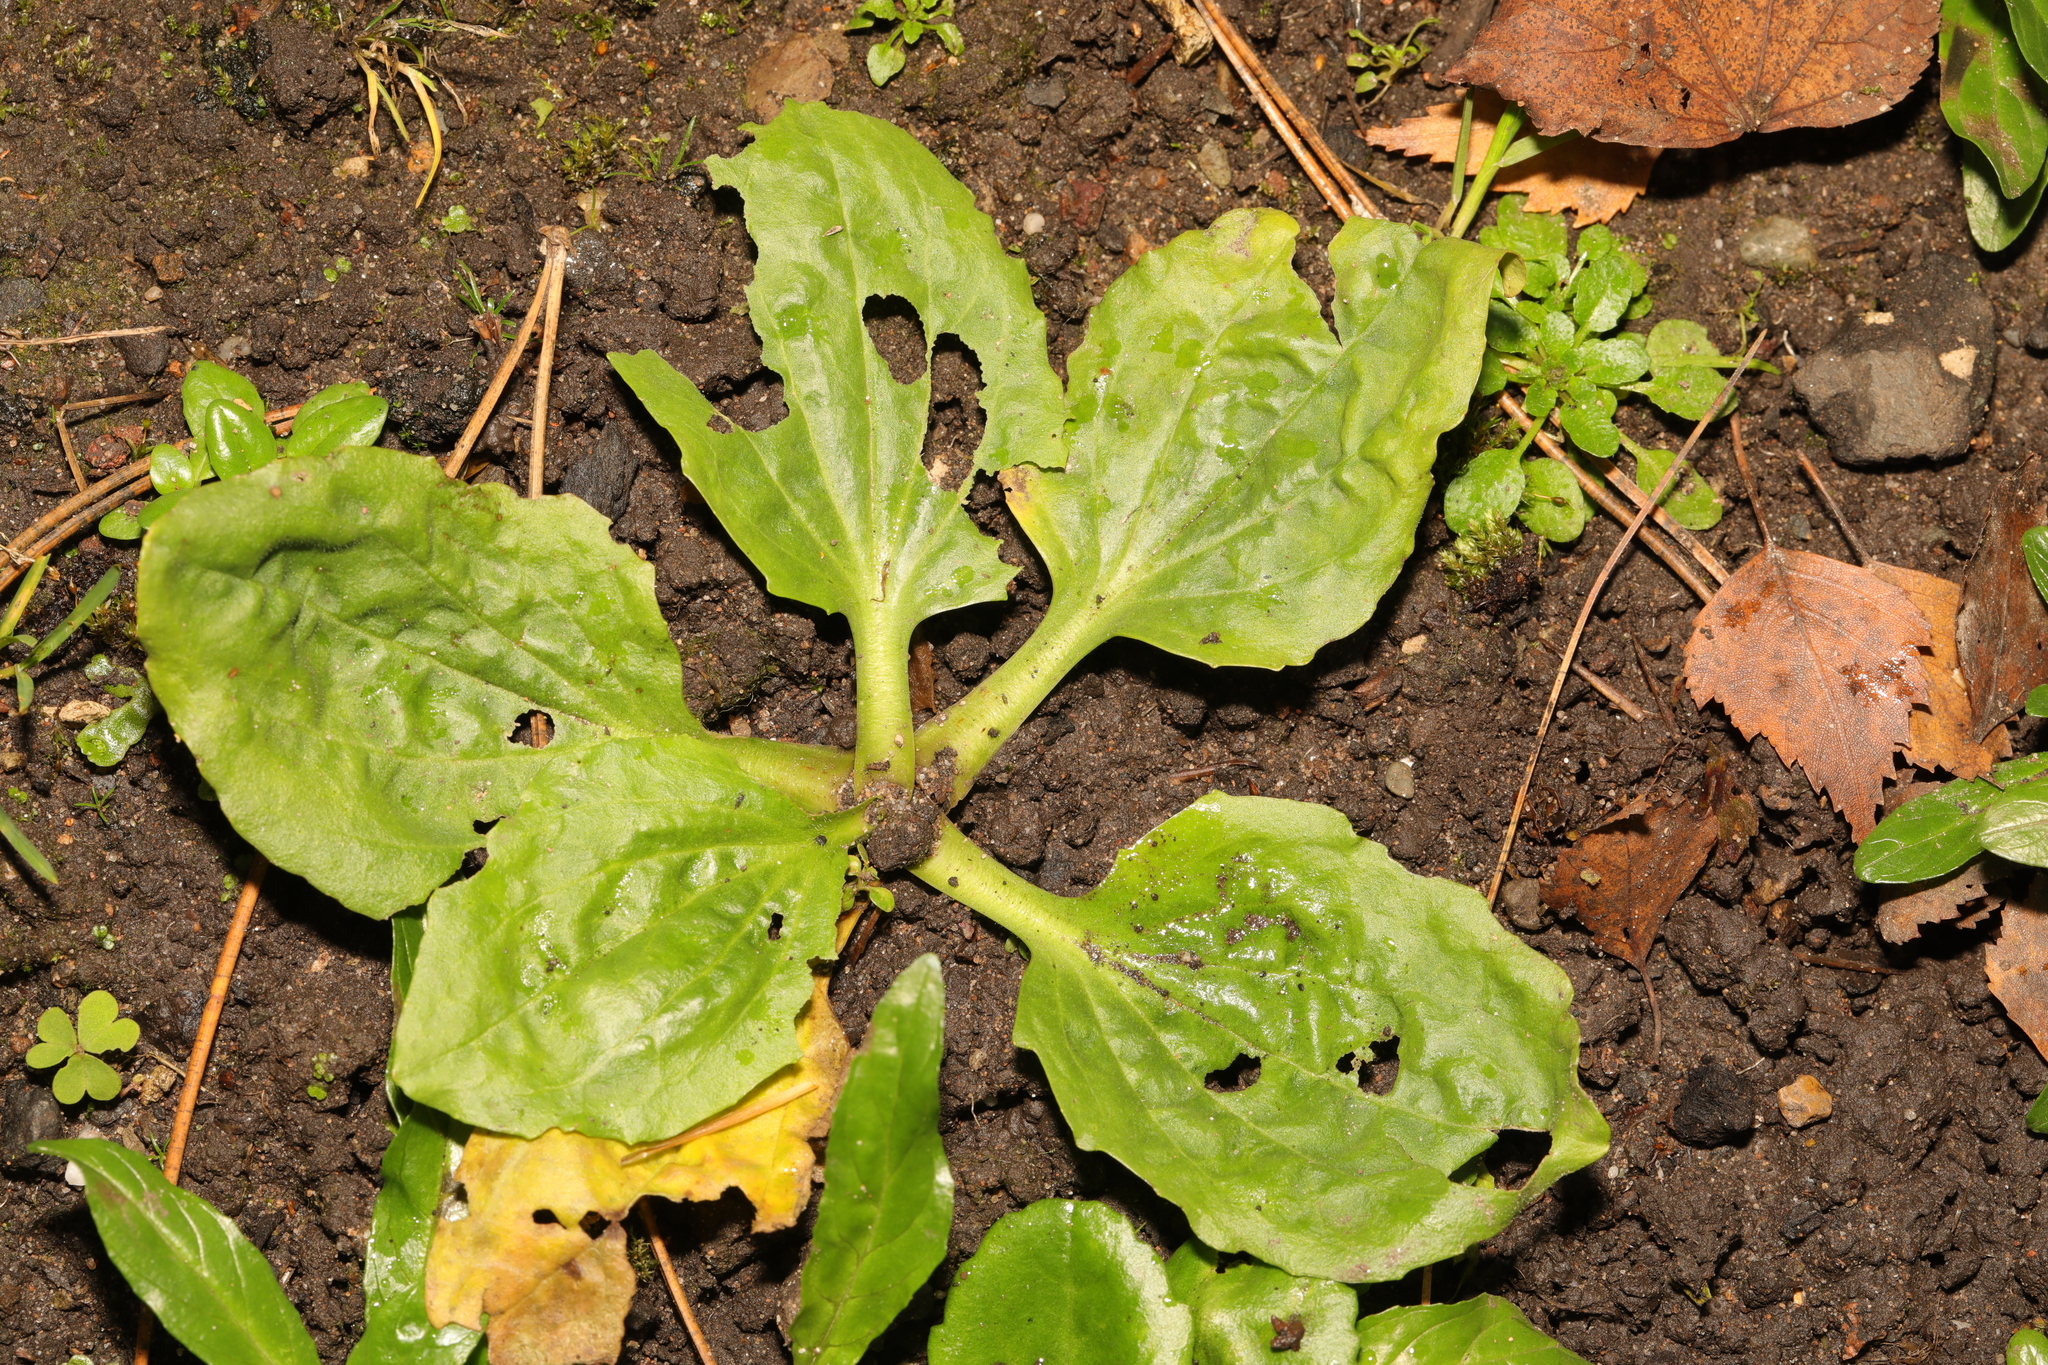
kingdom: Plantae
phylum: Tracheophyta
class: Magnoliopsida
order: Lamiales
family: Plantaginaceae
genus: Plantago
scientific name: Plantago major
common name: Common plantain
